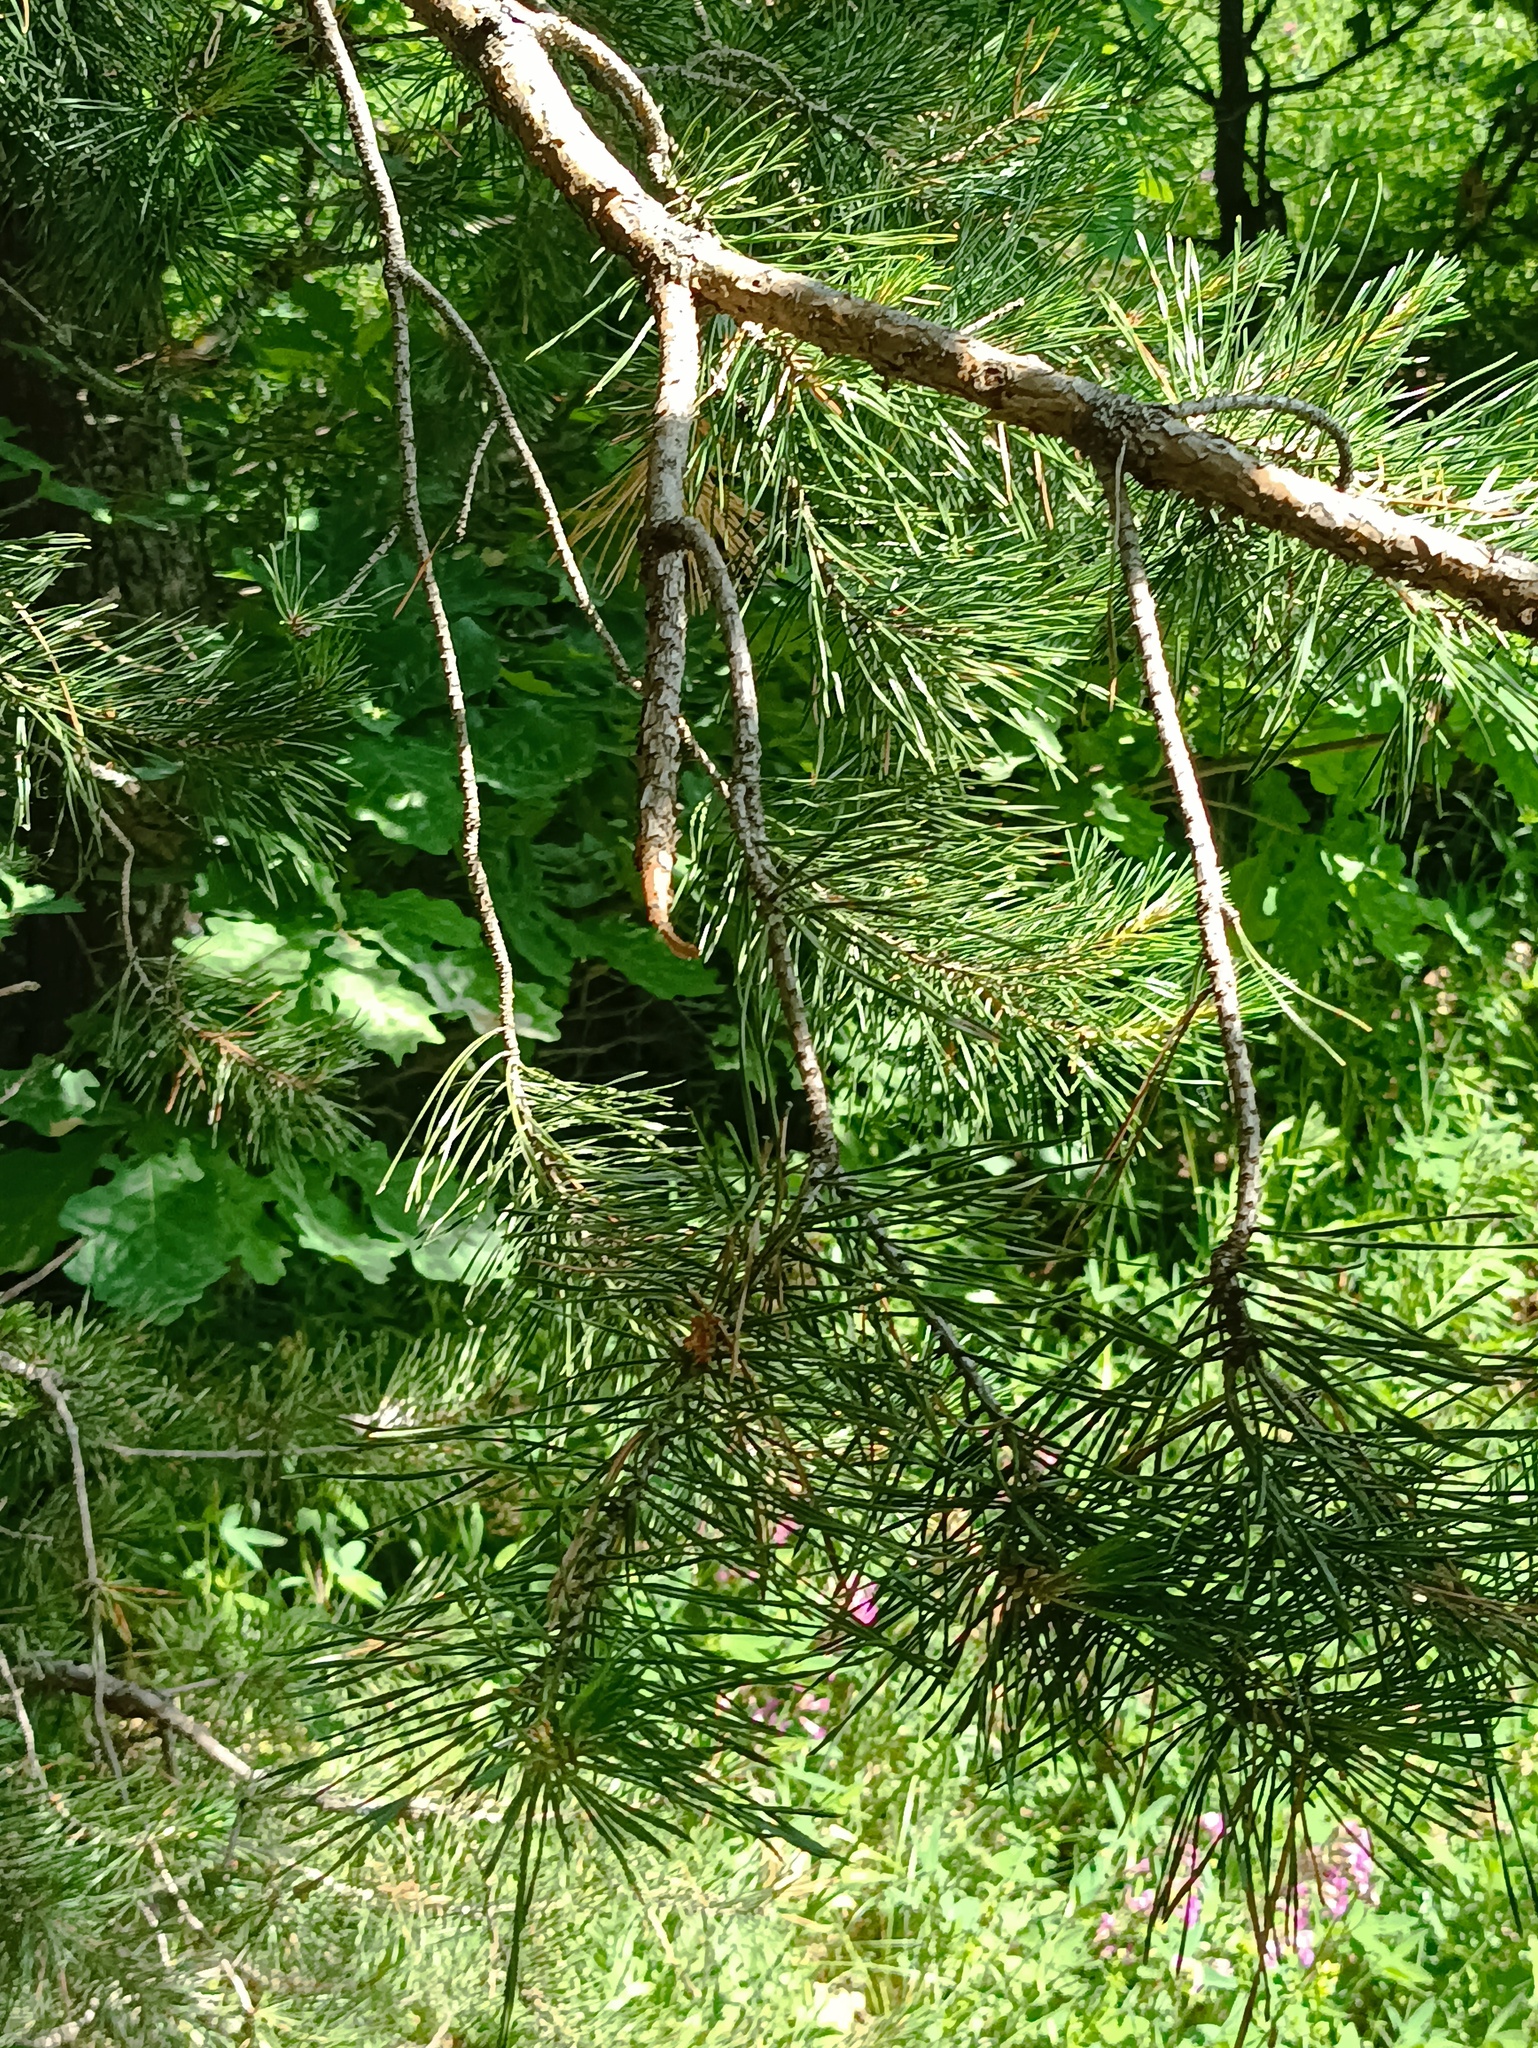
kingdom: Plantae
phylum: Tracheophyta
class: Pinopsida
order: Pinales
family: Pinaceae
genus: Pinus
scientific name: Pinus sylvestris
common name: Scots pine
